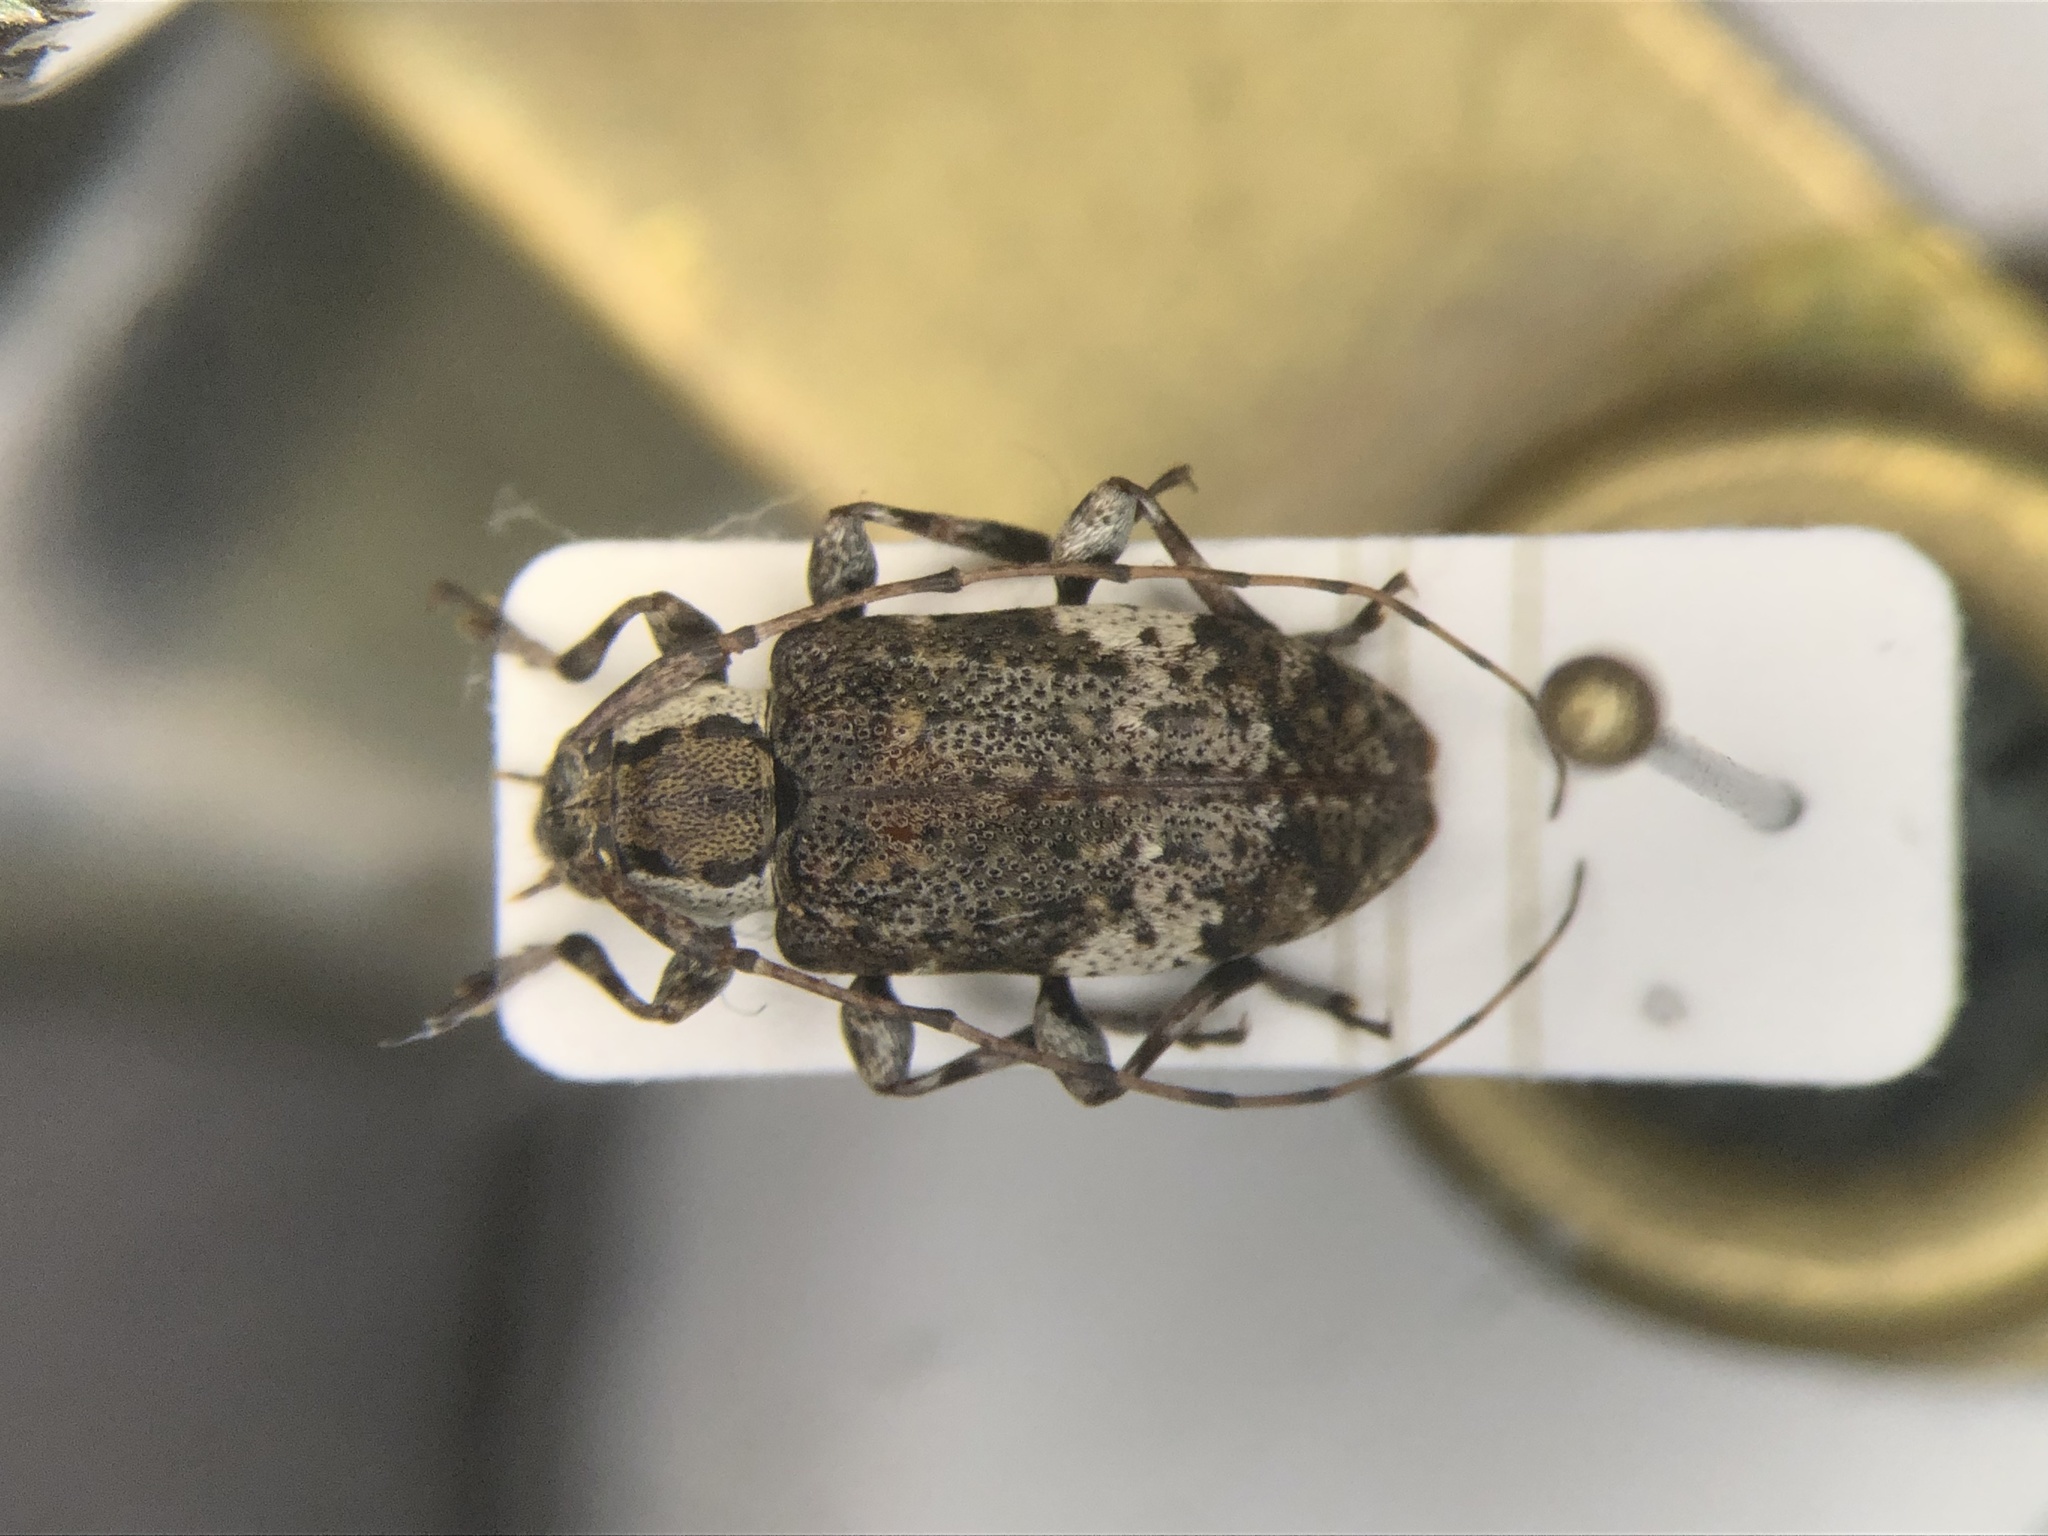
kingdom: Animalia
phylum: Arthropoda
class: Insecta
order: Coleoptera
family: Cerambycidae
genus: Astylopsis
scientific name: Astylopsis macula
